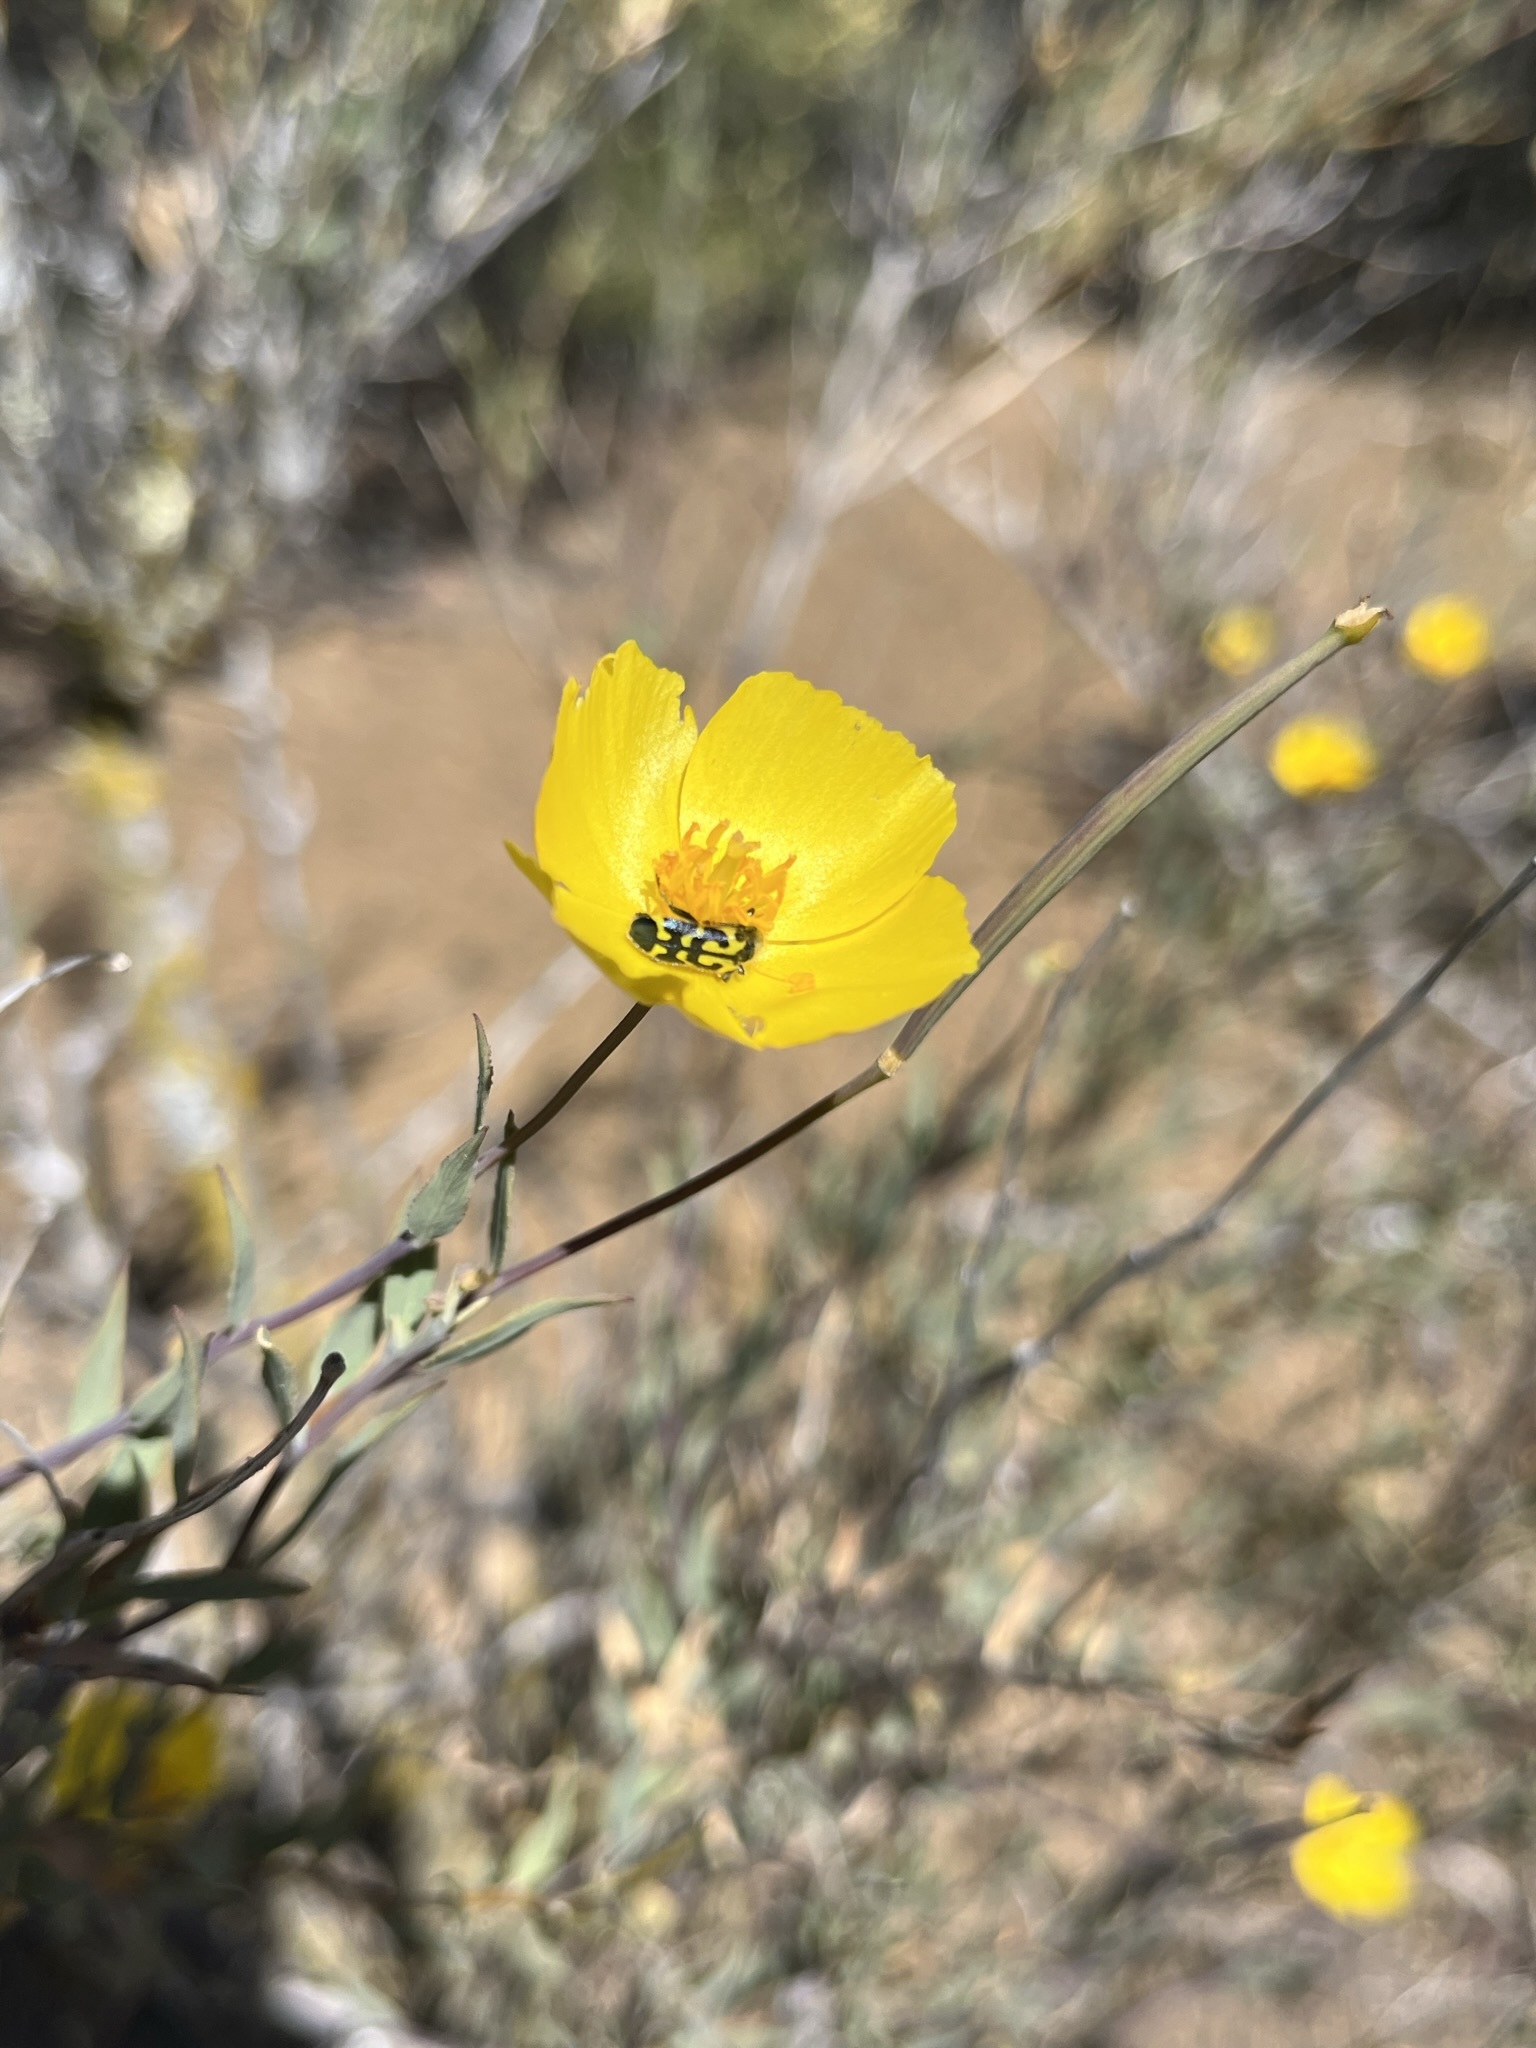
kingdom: Animalia
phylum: Arthropoda
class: Insecta
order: Coleoptera
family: Cleridae
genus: Trichodes
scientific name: Trichodes ornatus
